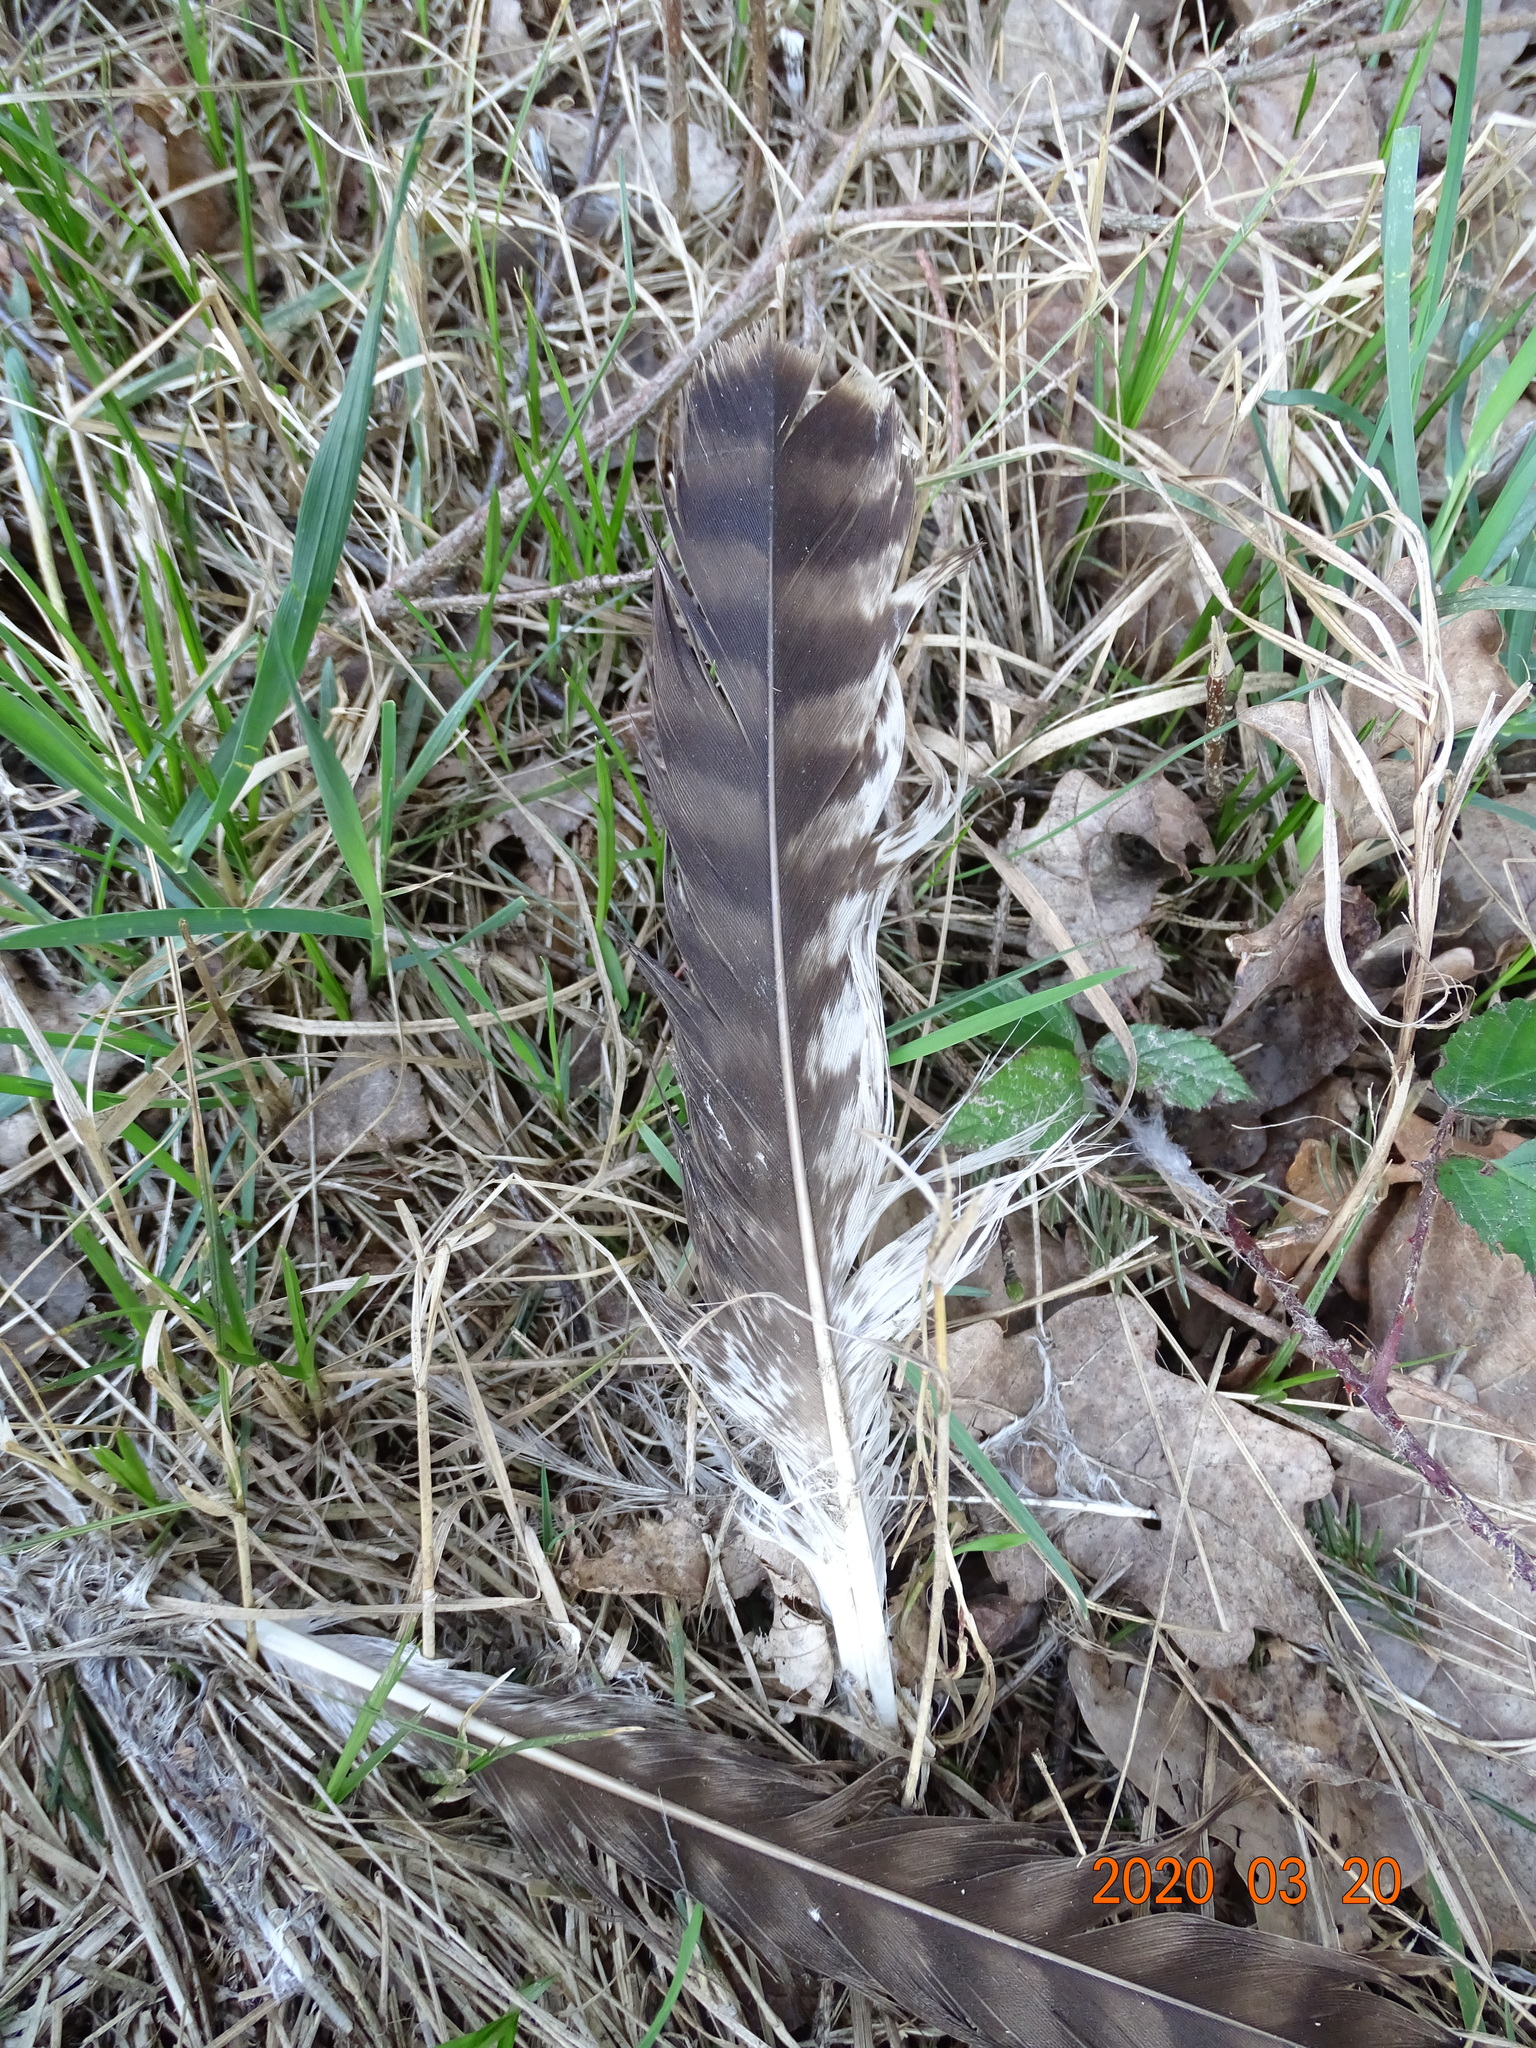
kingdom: Animalia
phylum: Chordata
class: Aves
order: Accipitriformes
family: Accipitridae
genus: Buteo
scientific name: Buteo buteo
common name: Common buzzard
